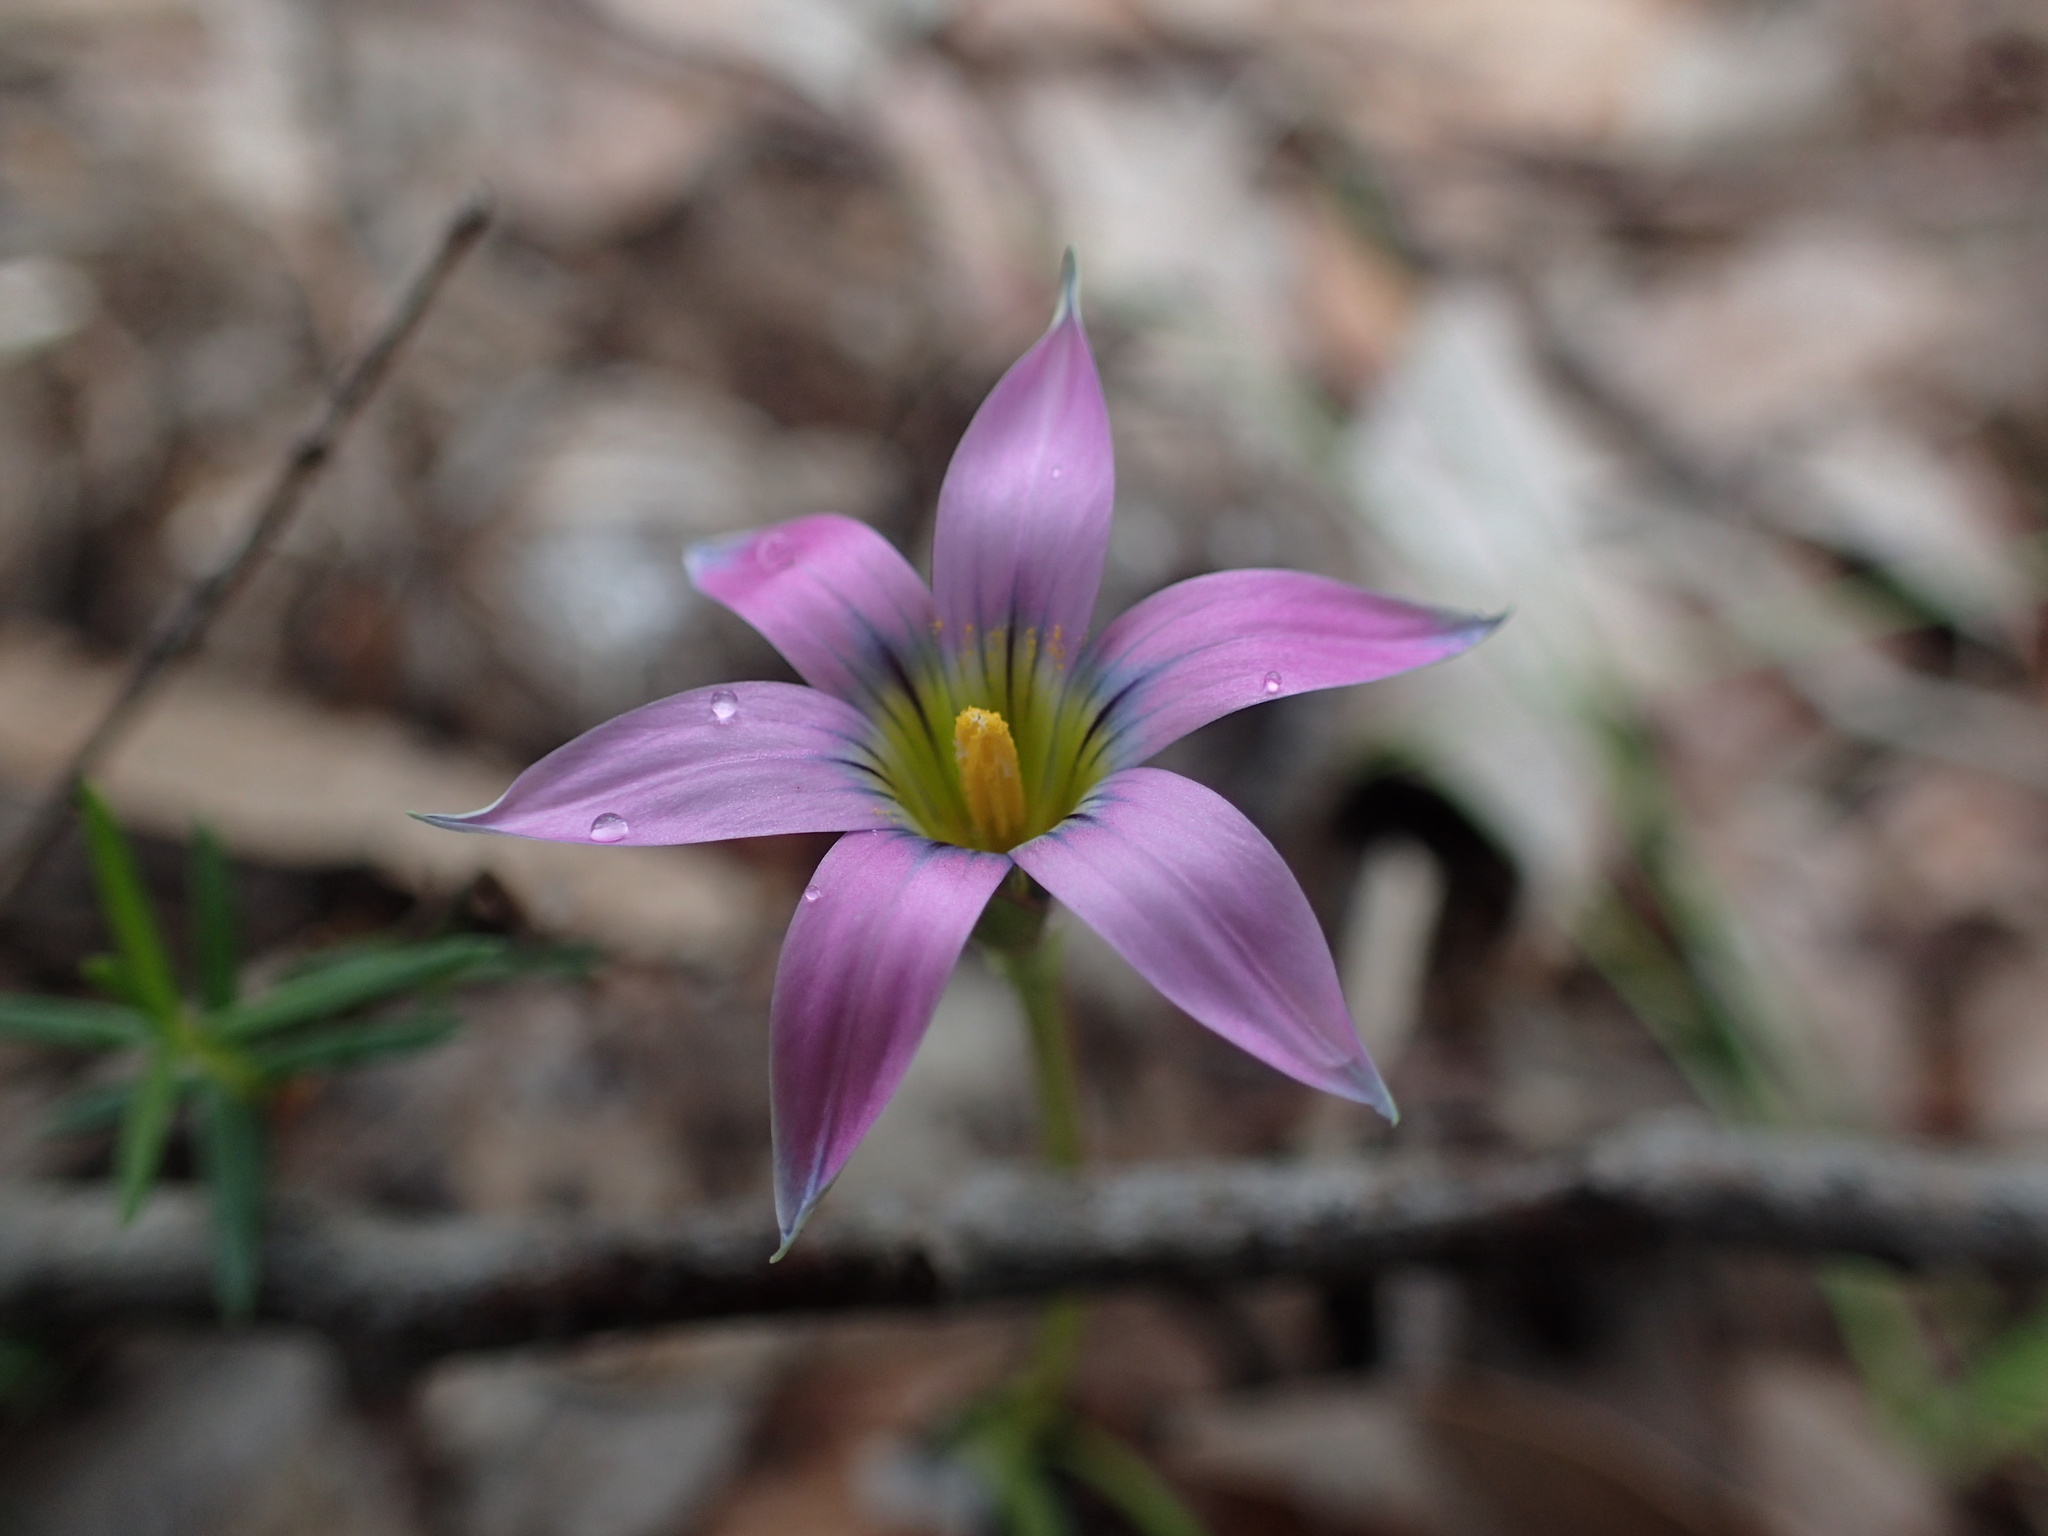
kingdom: Plantae
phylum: Tracheophyta
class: Liliopsida
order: Asparagales
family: Iridaceae
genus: Romulea
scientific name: Romulea rosea
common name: Oniongrass
